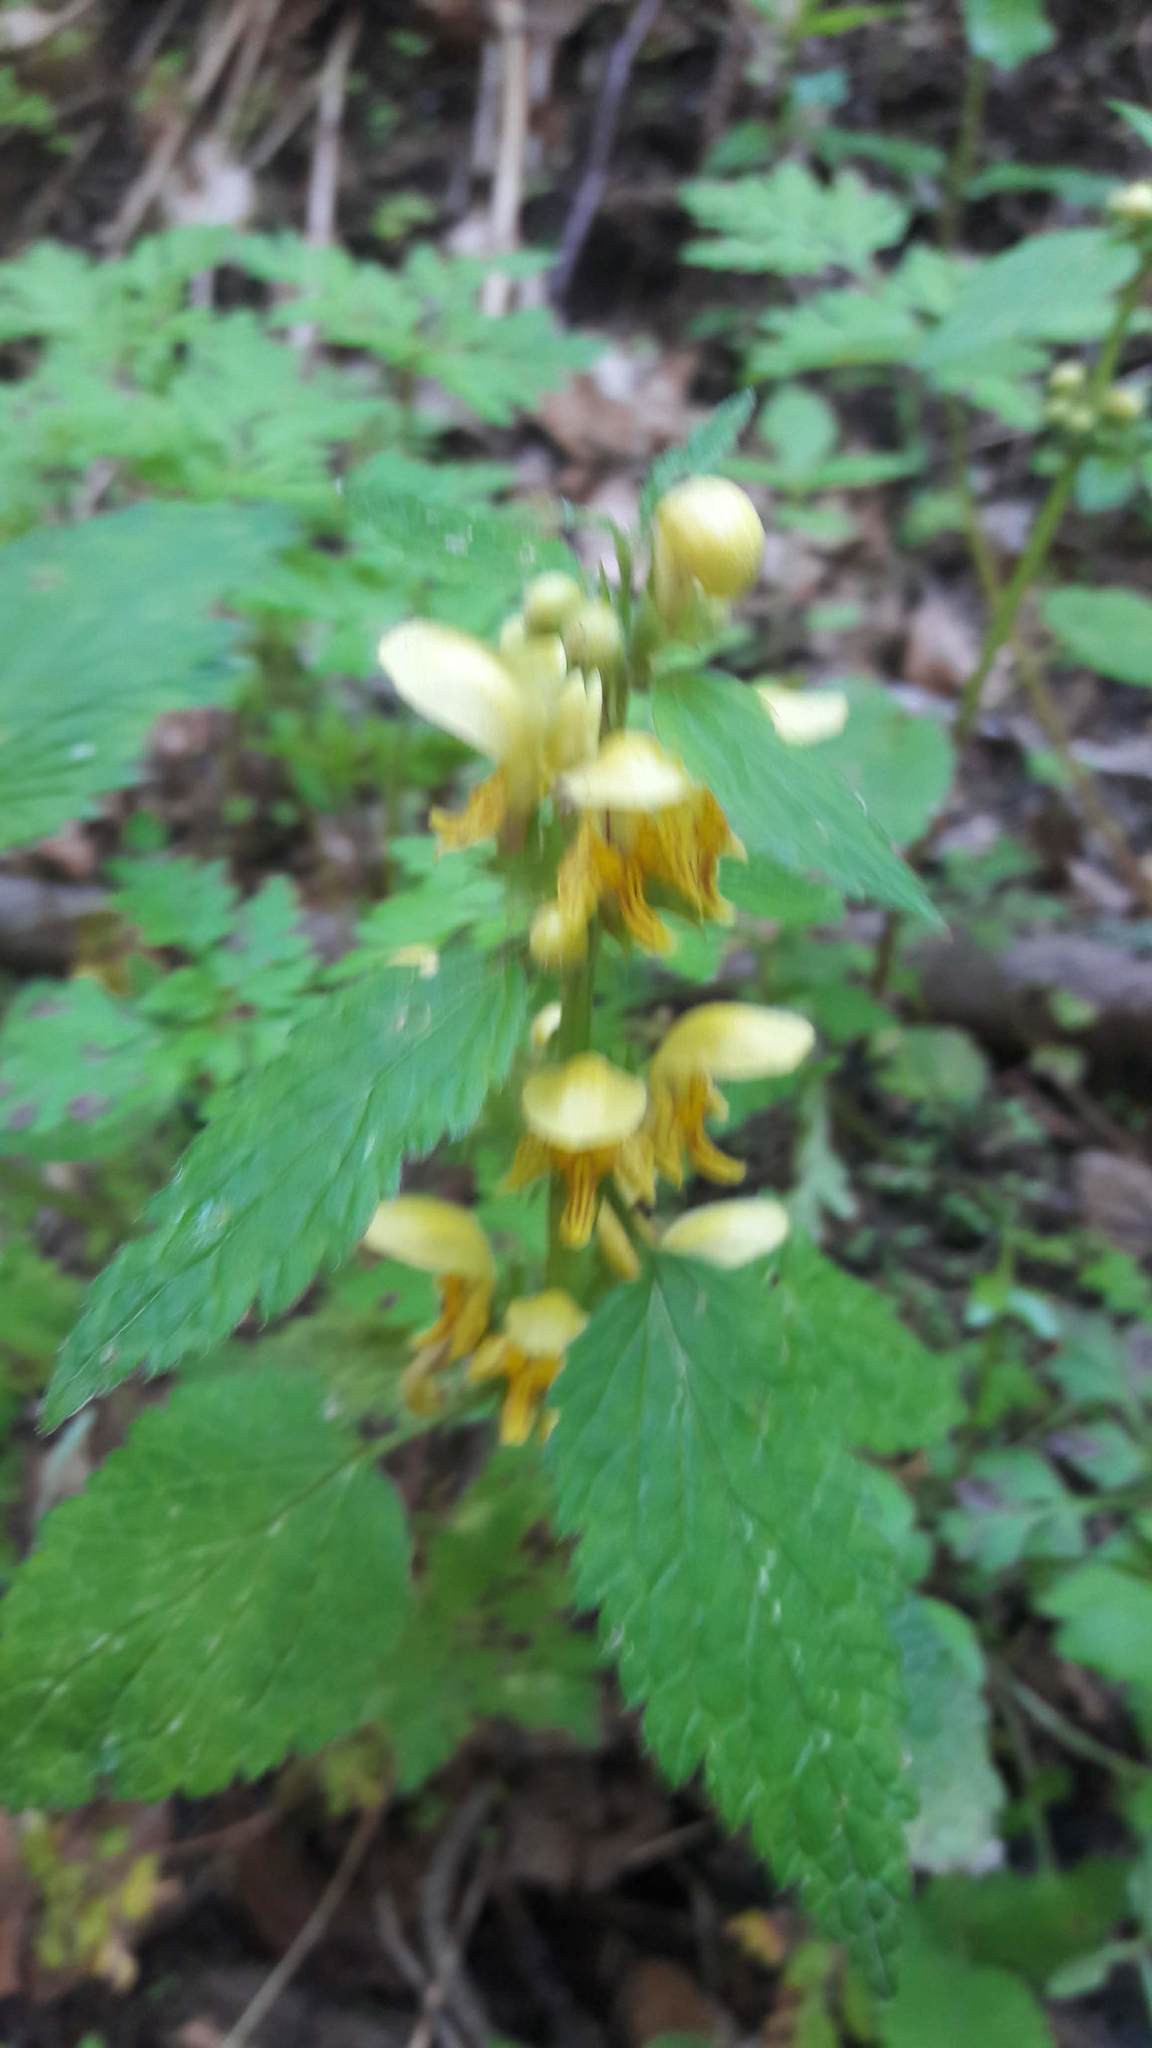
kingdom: Plantae
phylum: Tracheophyta
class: Magnoliopsida
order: Lamiales
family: Lamiaceae
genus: Lamium
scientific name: Lamium galeobdolon
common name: Yellow archangel
